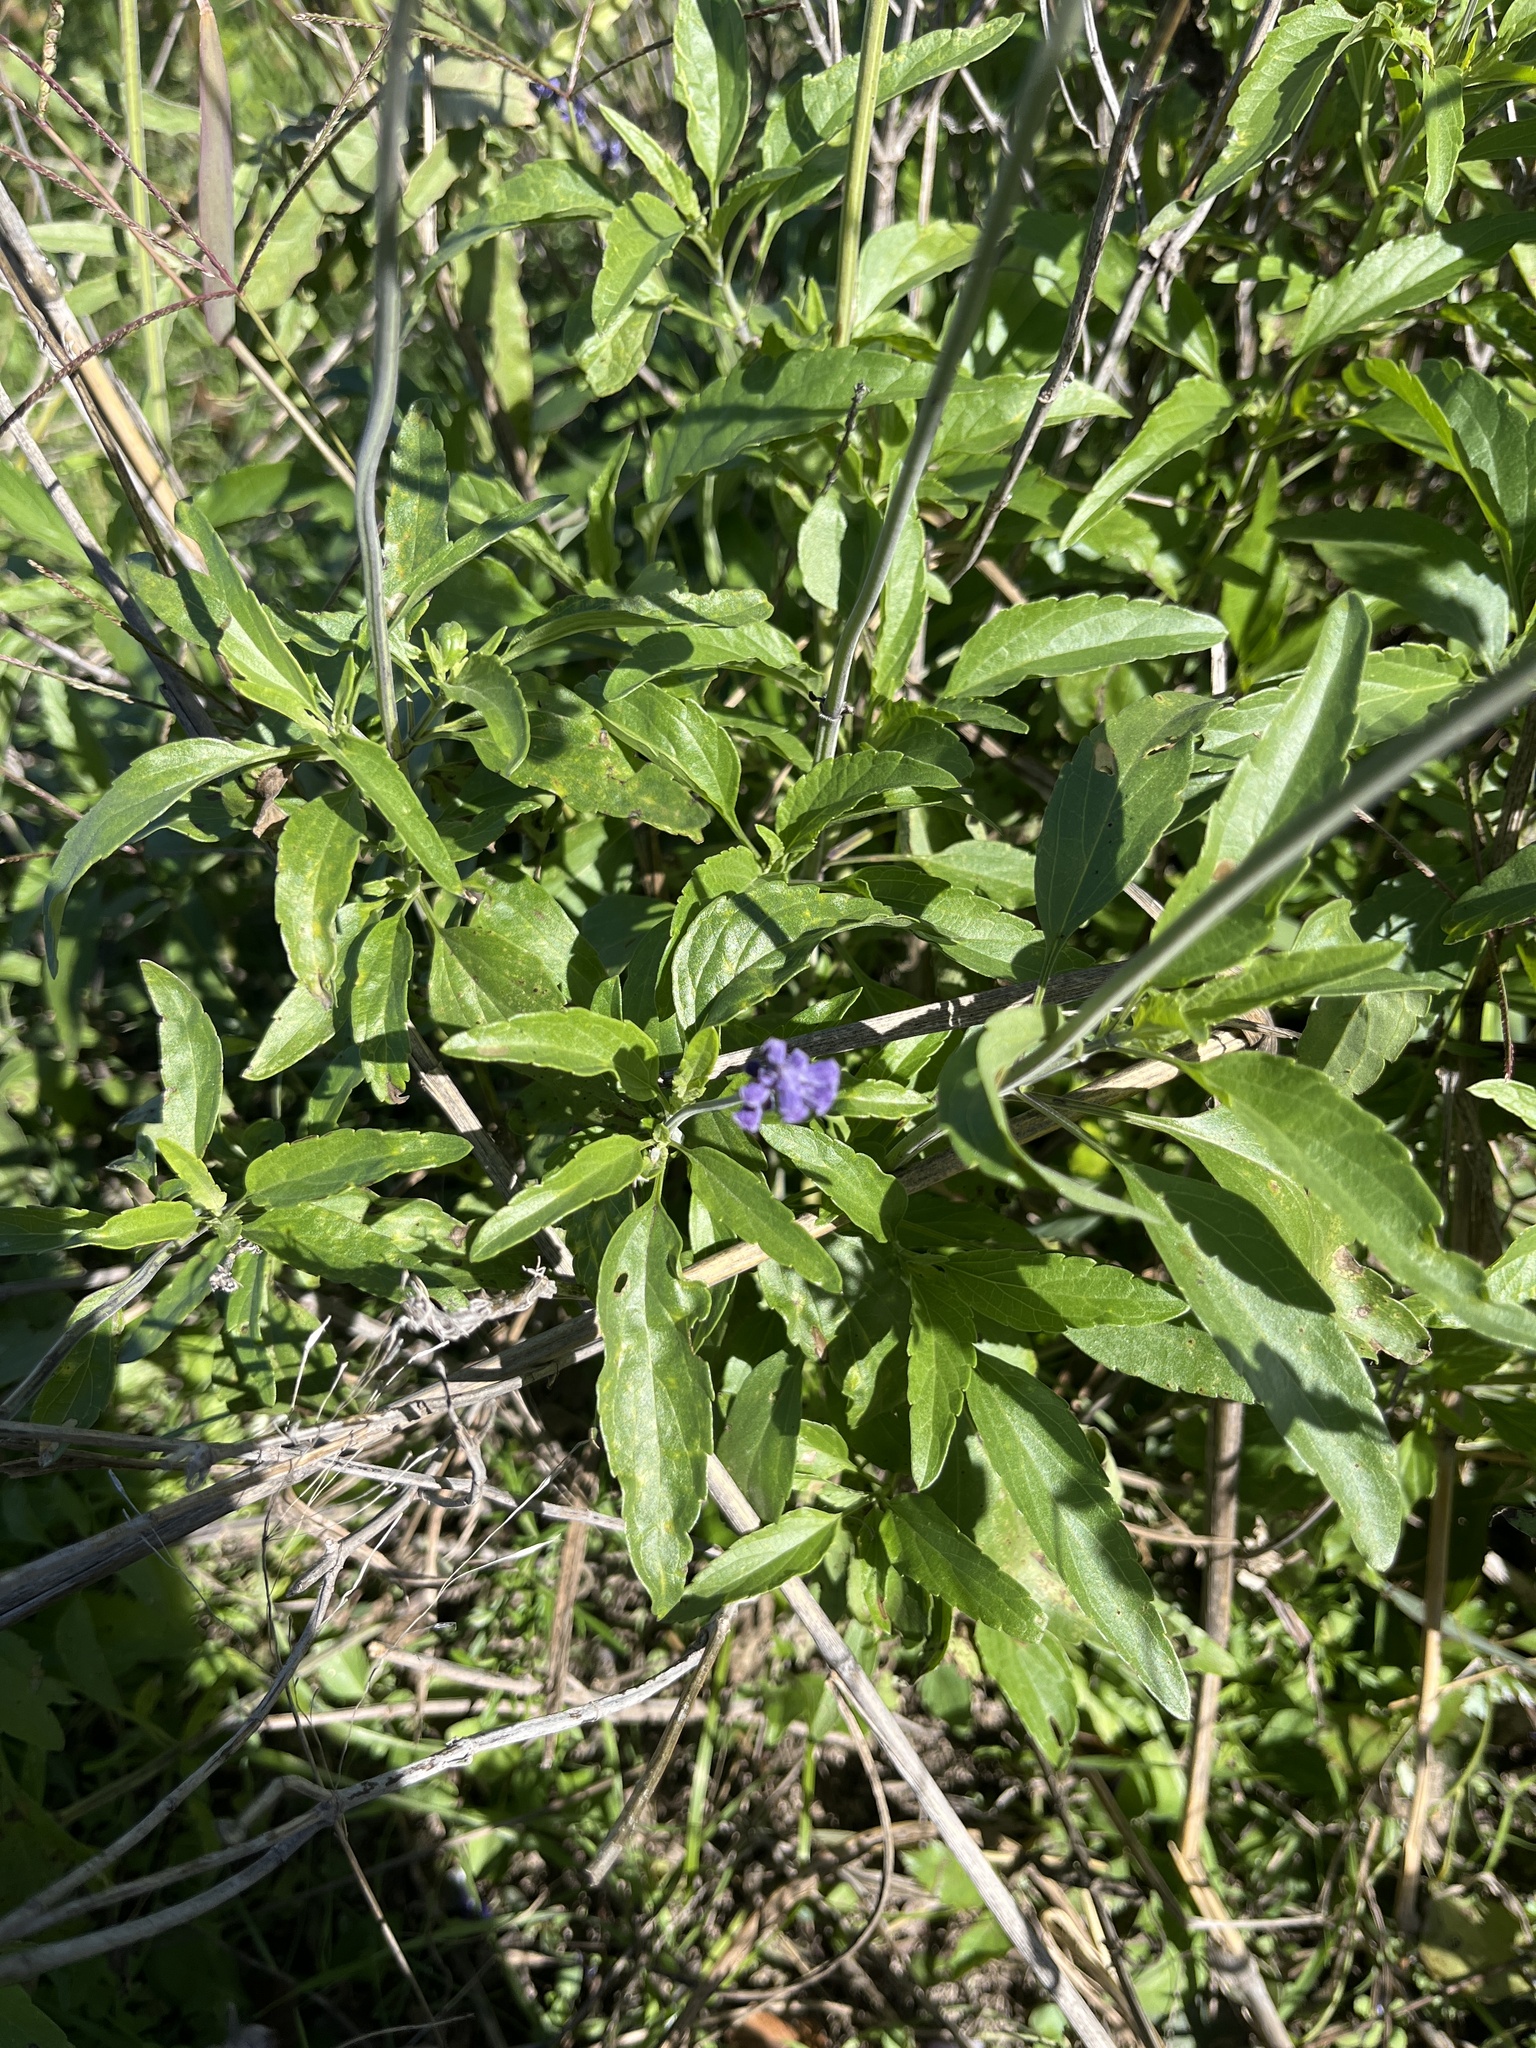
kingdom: Plantae
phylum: Tracheophyta
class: Magnoliopsida
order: Lamiales
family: Lamiaceae
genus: Salvia
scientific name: Salvia farinacea
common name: Mealy sage
